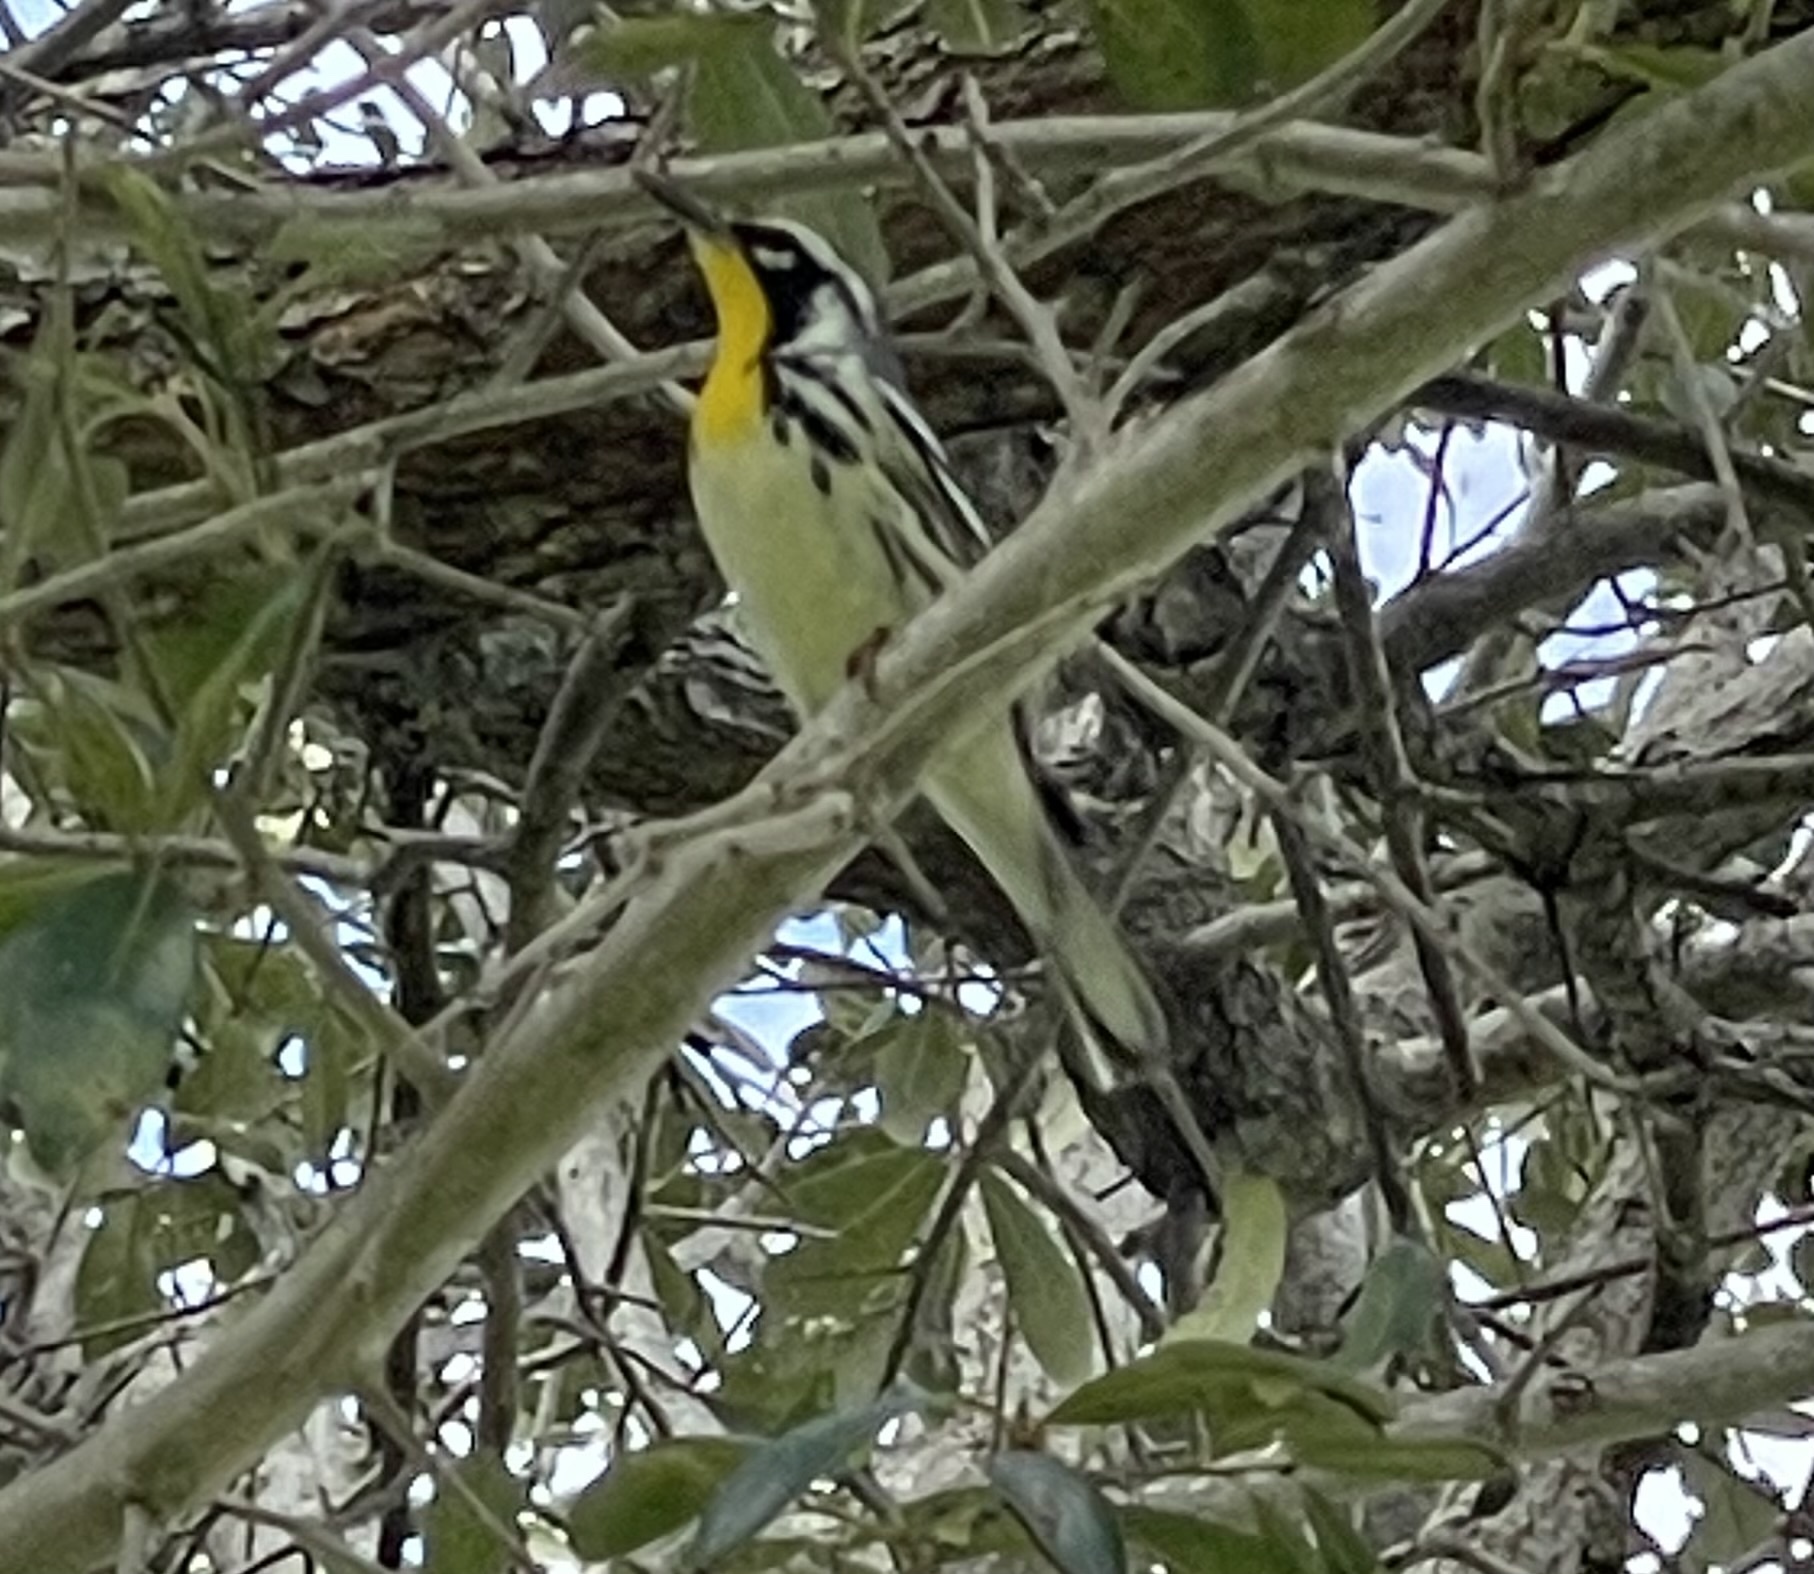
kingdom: Animalia
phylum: Chordata
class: Aves
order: Passeriformes
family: Parulidae
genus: Setophaga
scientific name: Setophaga dominica
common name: Yellow-throated warbler
